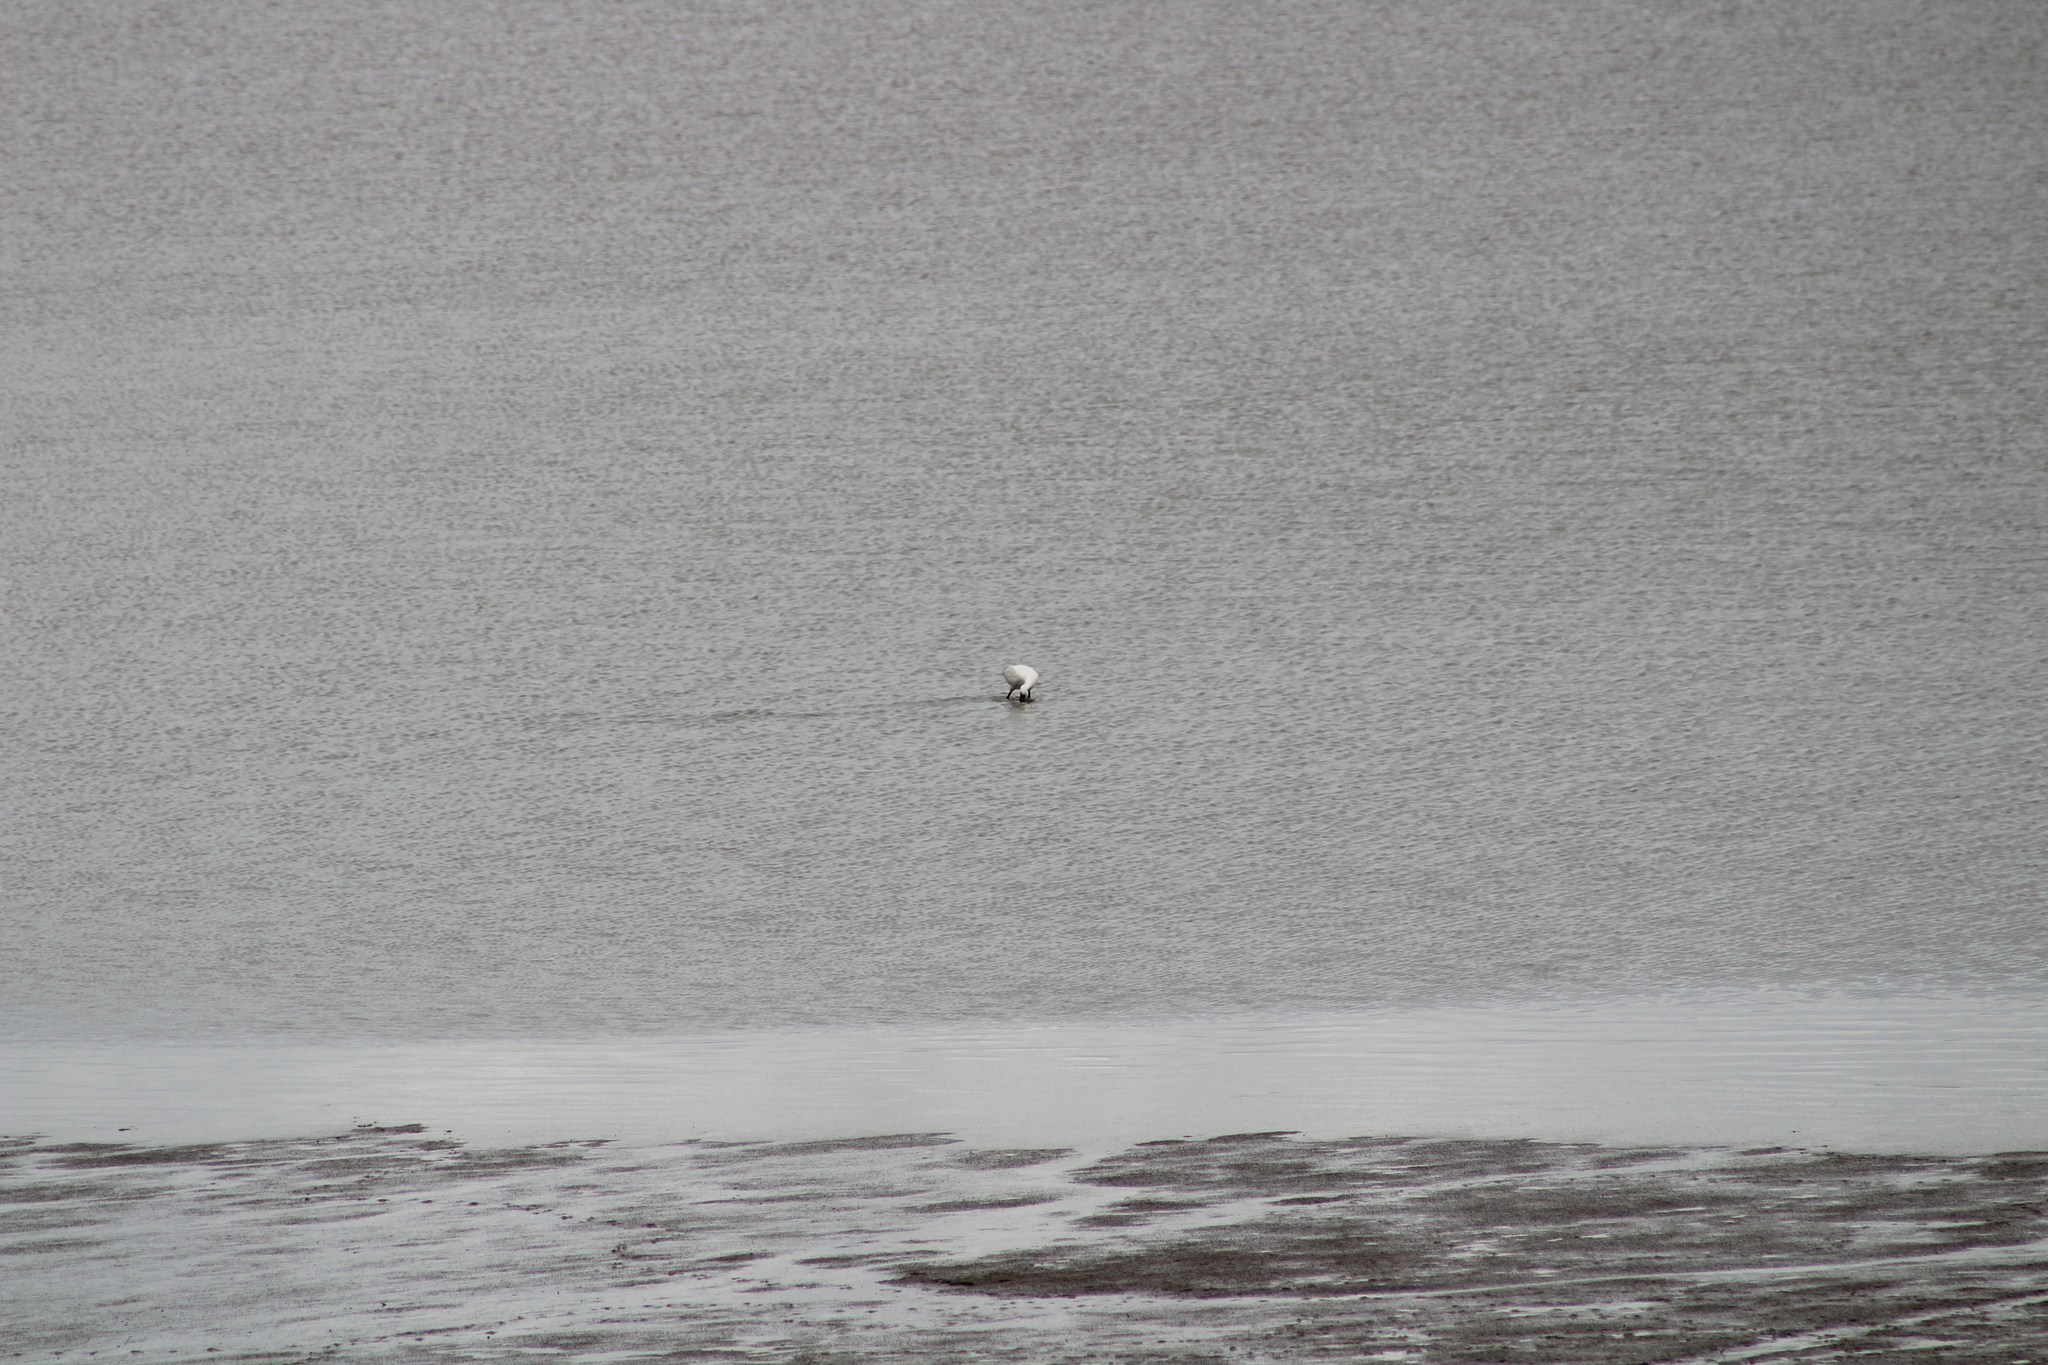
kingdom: Animalia
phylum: Chordata
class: Aves
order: Pelecaniformes
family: Threskiornithidae
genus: Platalea
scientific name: Platalea leucorodia
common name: Eurasian spoonbill
